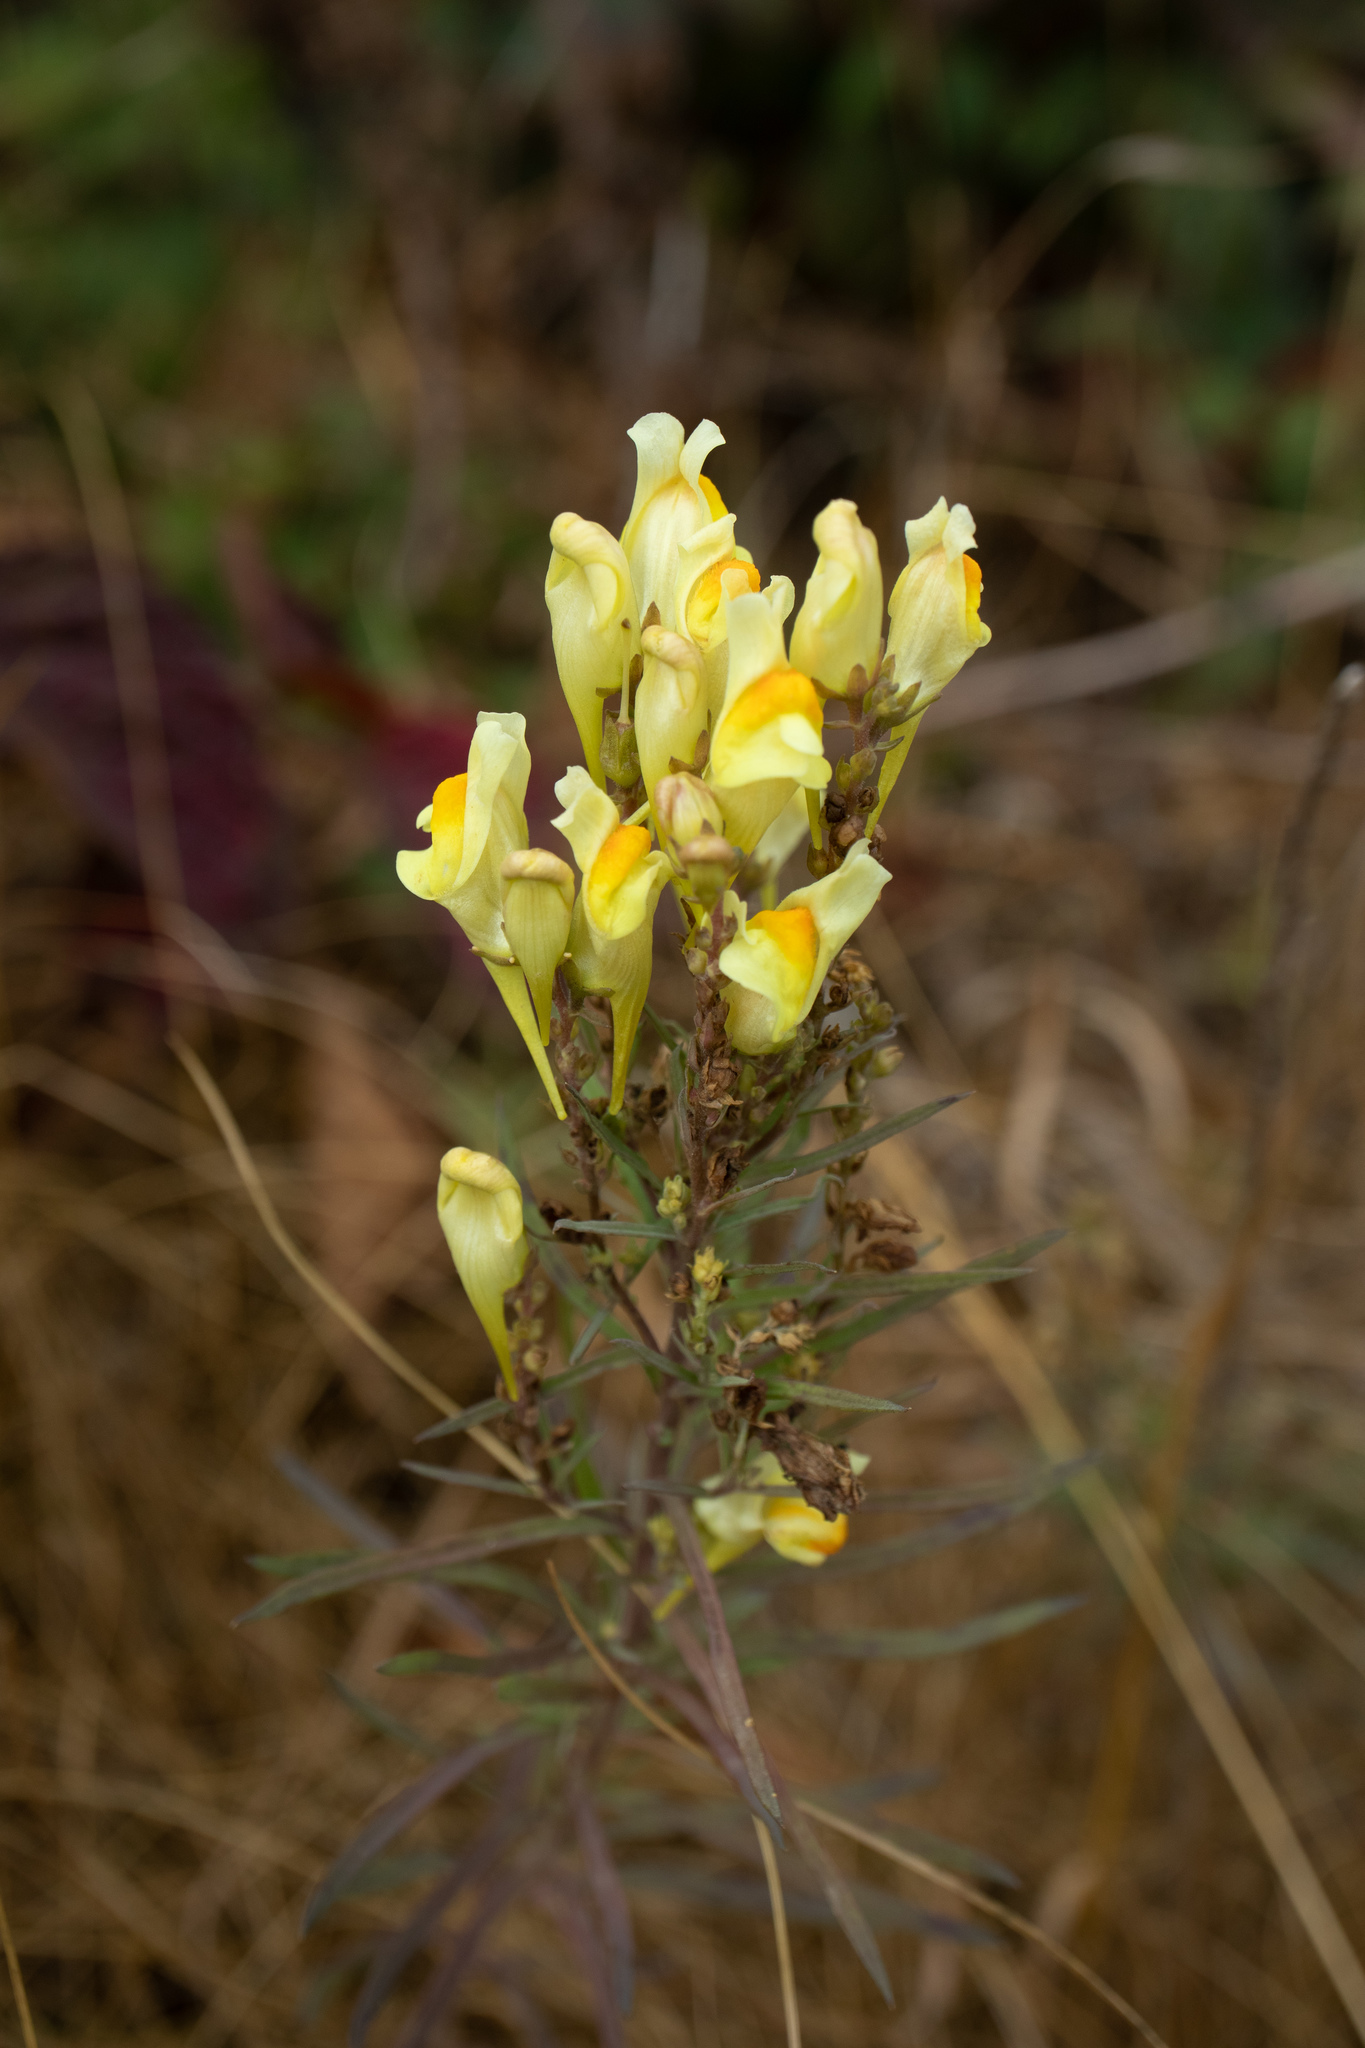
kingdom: Plantae
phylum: Tracheophyta
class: Magnoliopsida
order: Lamiales
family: Plantaginaceae
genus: Linaria
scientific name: Linaria vulgaris
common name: Butter and eggs
